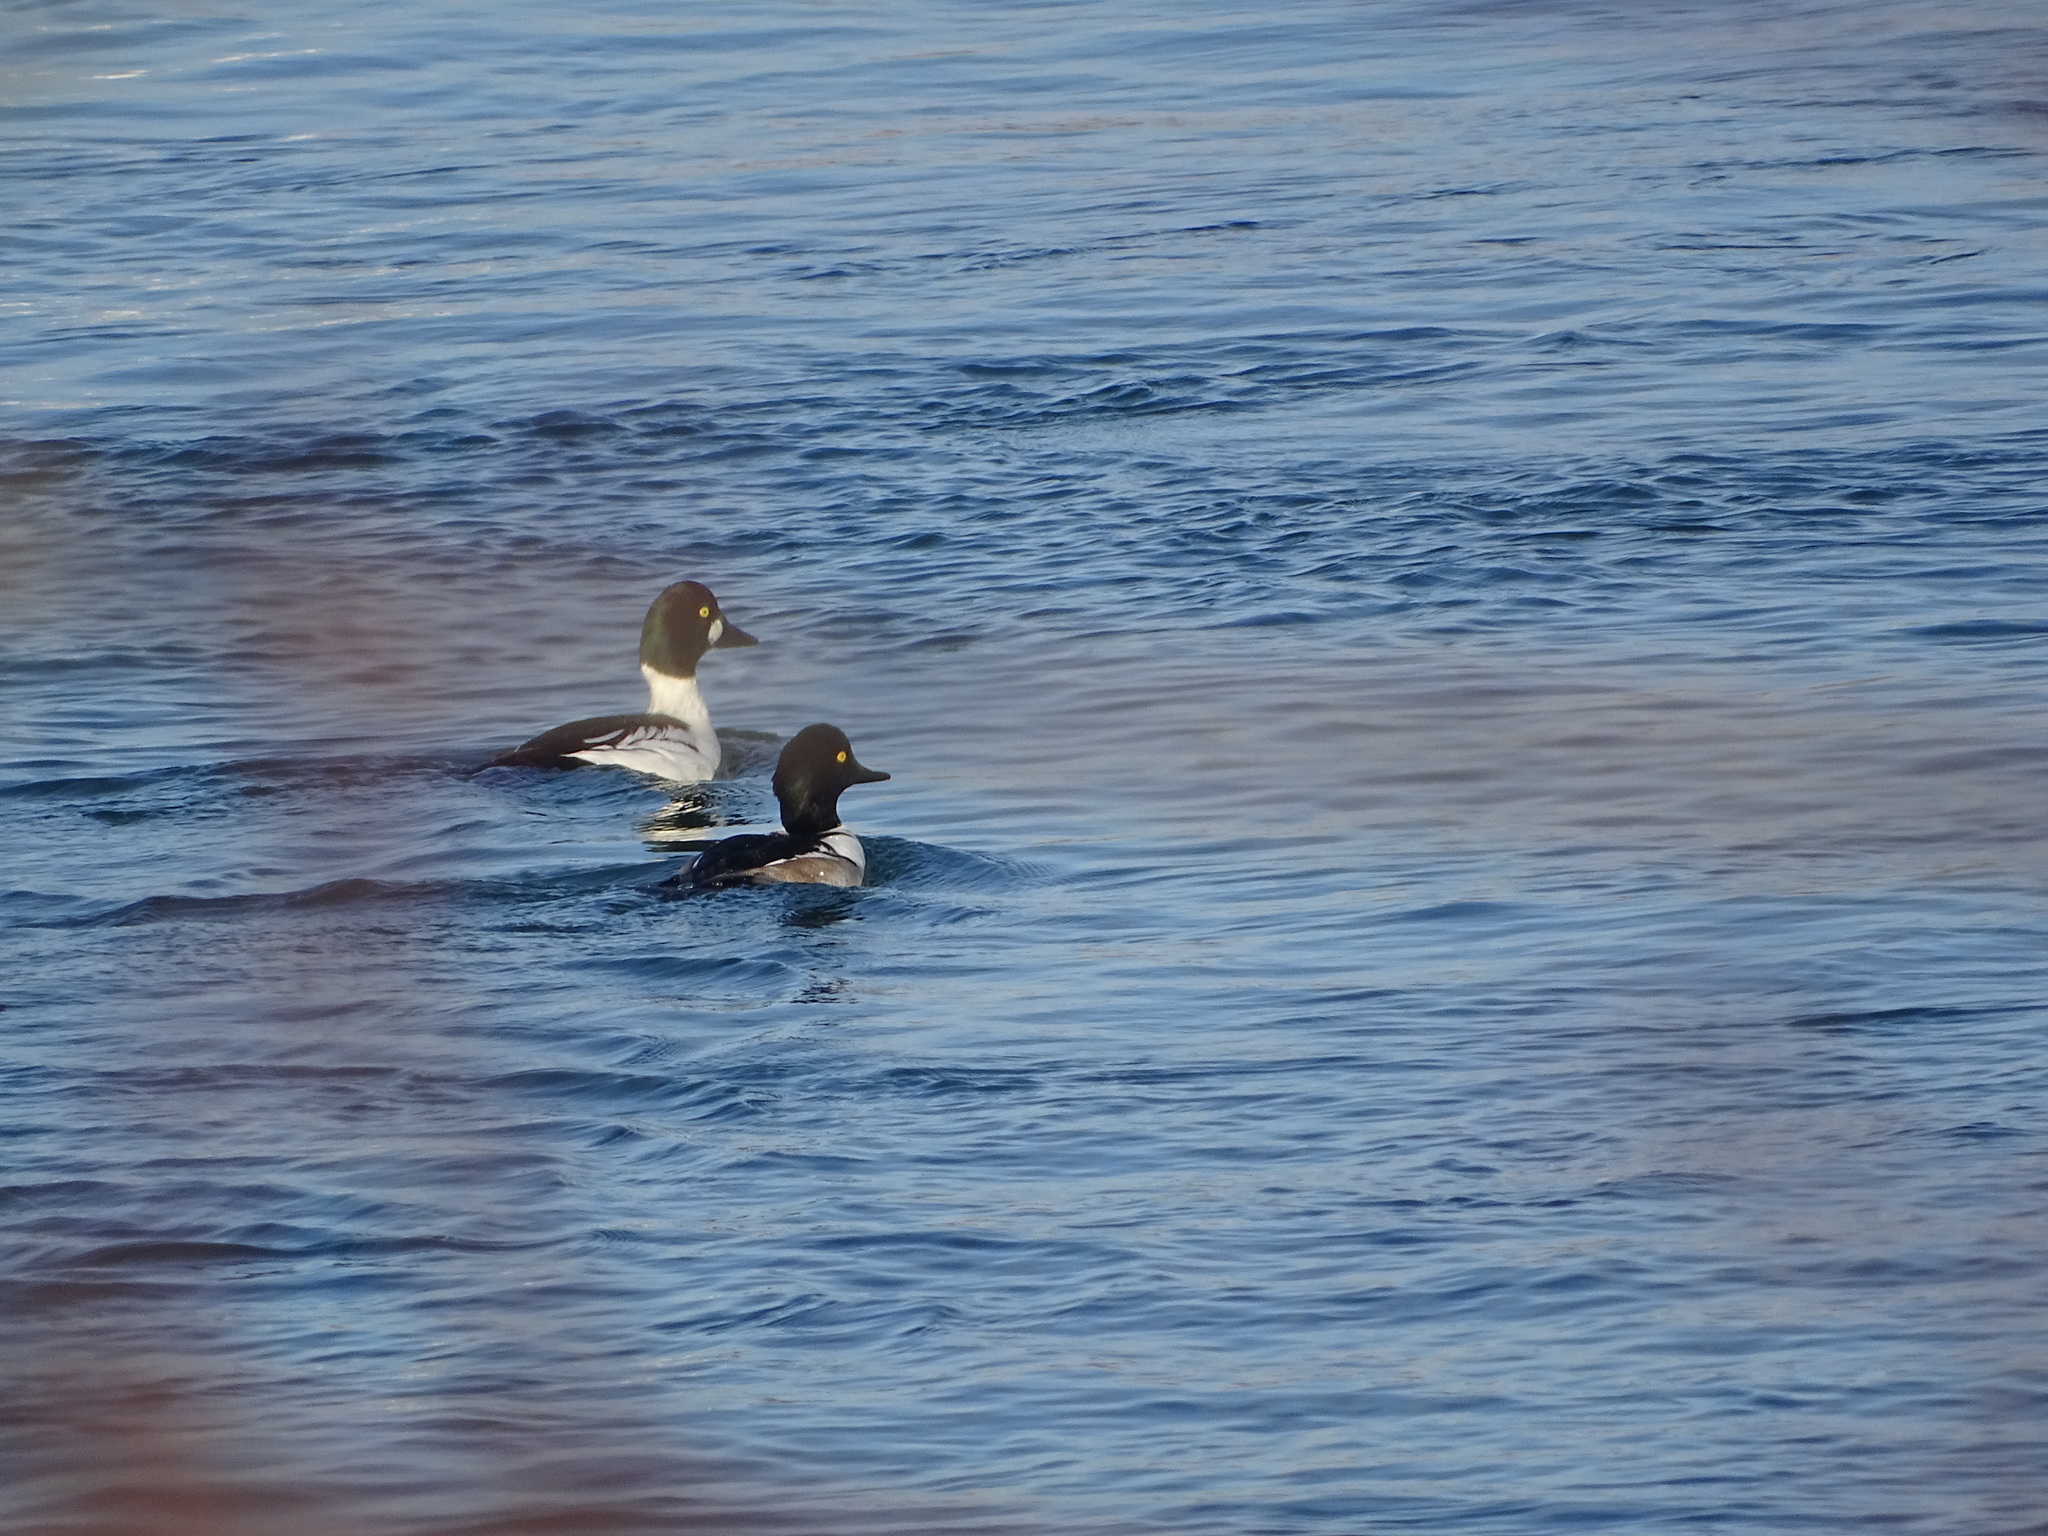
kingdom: Animalia
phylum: Chordata
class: Aves
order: Anseriformes
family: Anatidae
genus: Bucephala
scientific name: Bucephala clangula
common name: Common goldeneye
